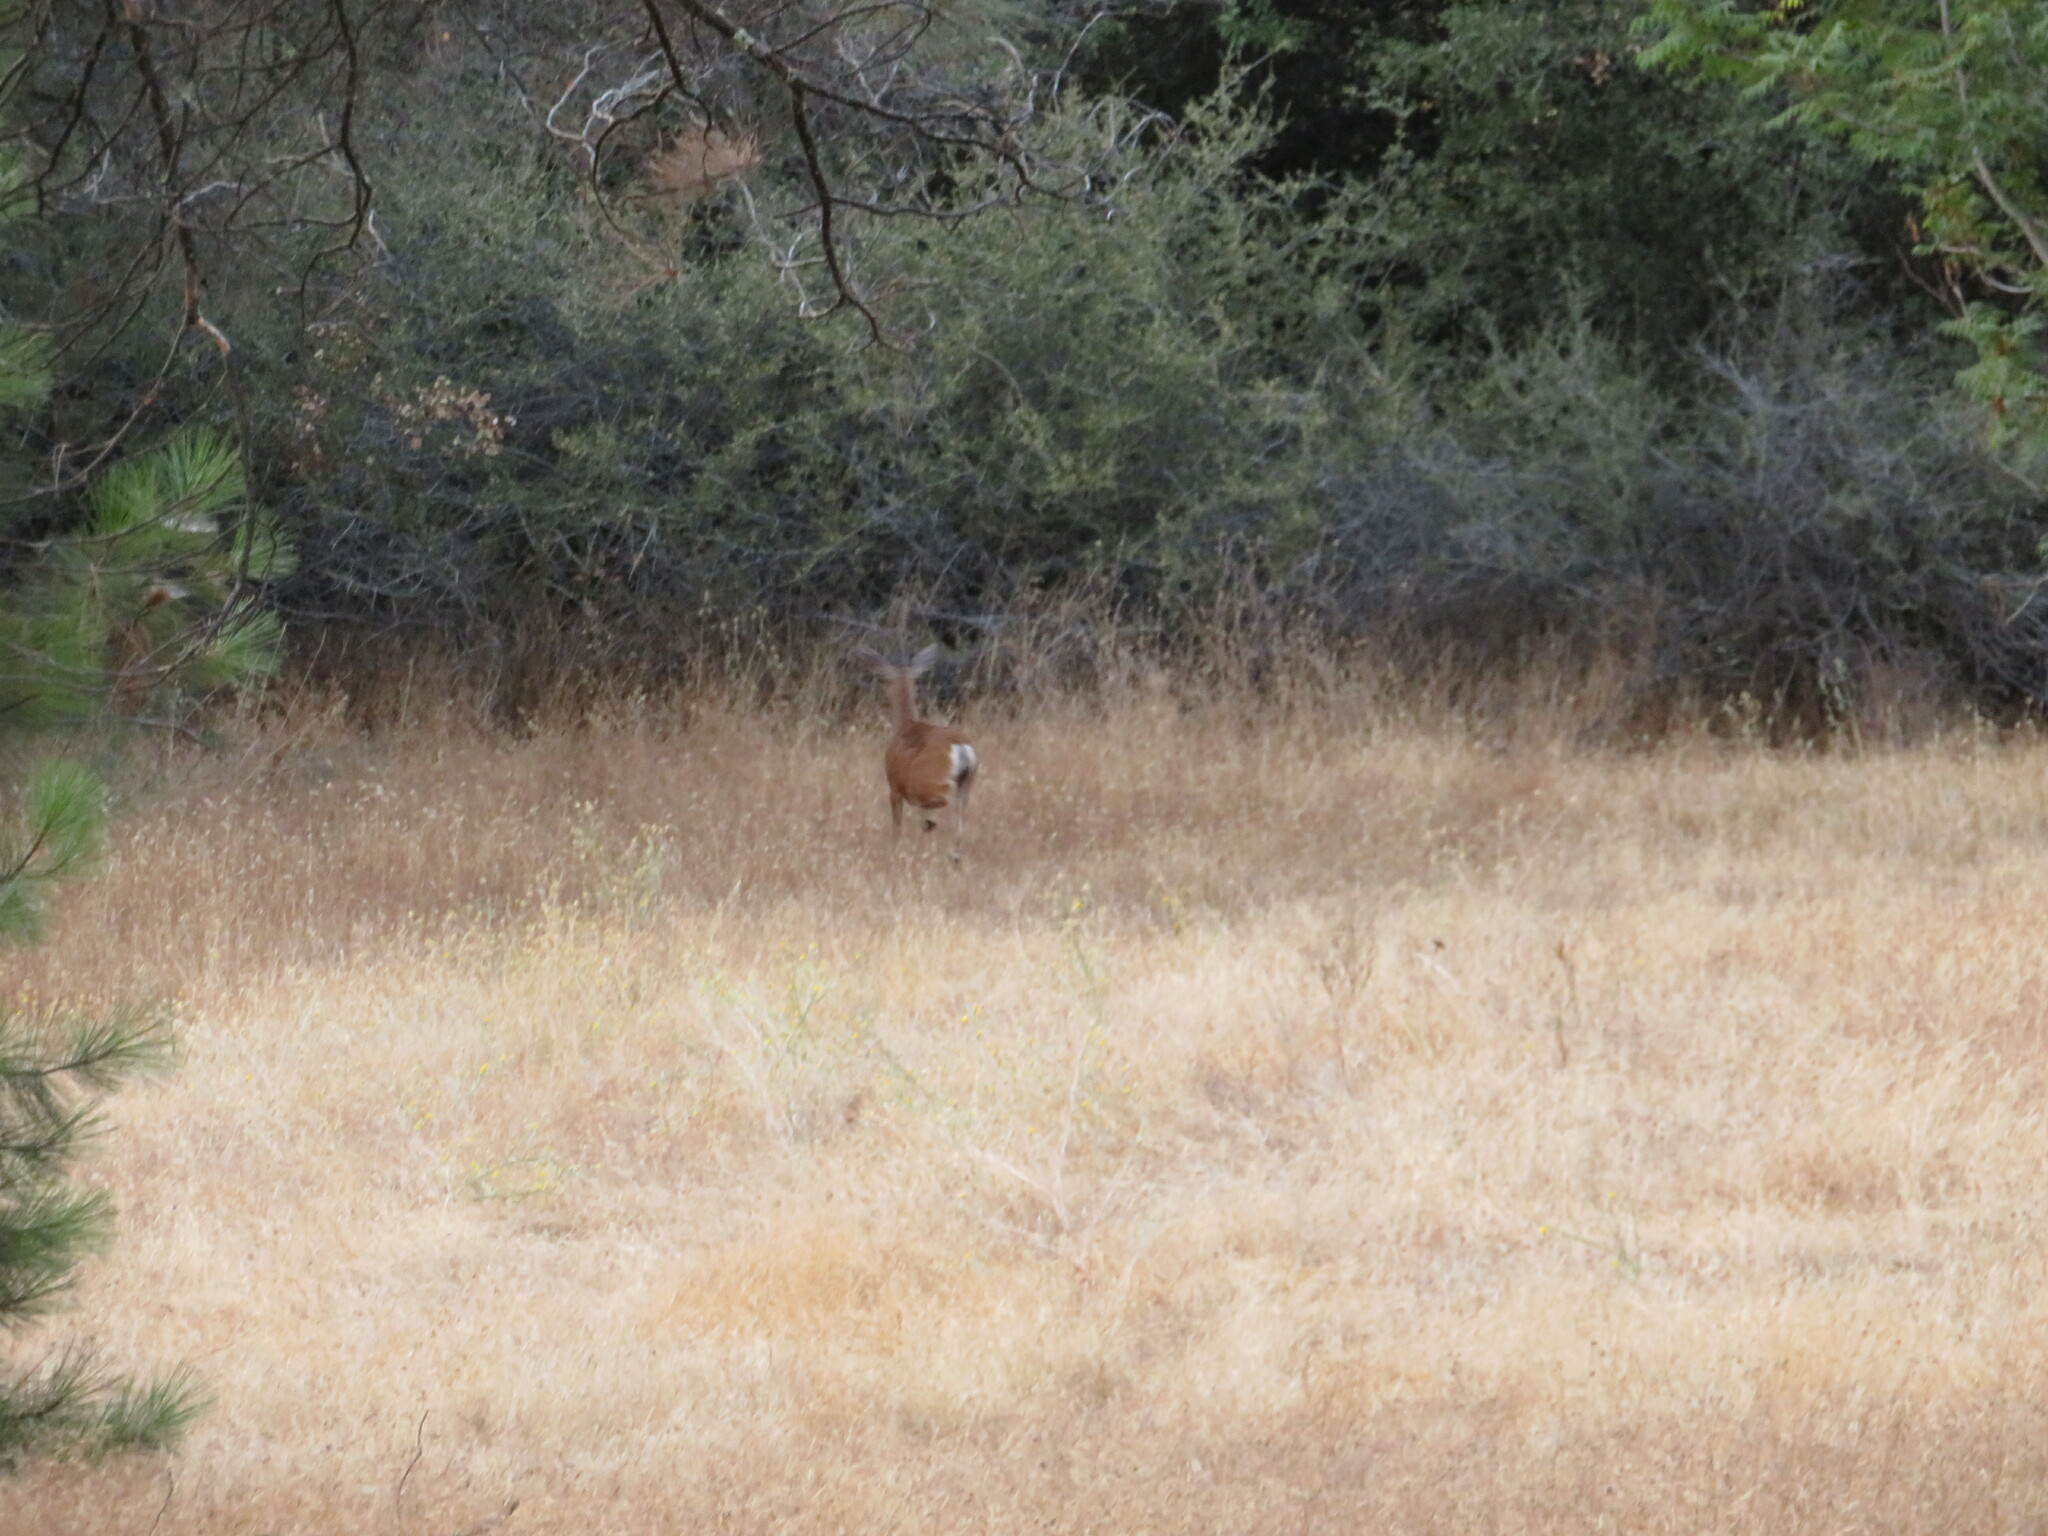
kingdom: Animalia
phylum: Chordata
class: Mammalia
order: Artiodactyla
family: Cervidae
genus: Odocoileus
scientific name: Odocoileus hemionus
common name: Mule deer
